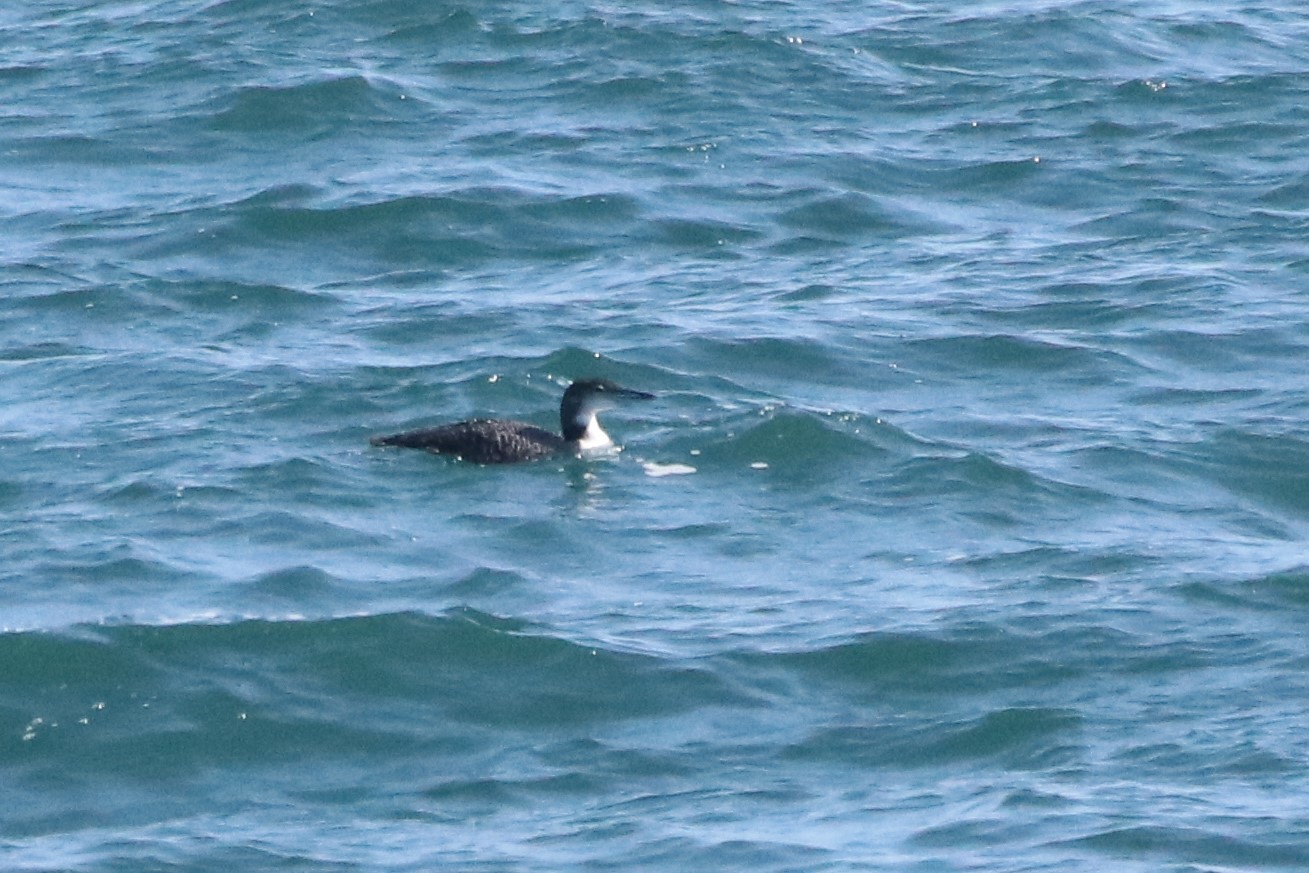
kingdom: Animalia
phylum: Chordata
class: Aves
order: Gaviiformes
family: Gaviidae
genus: Gavia
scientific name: Gavia immer
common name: Common loon
